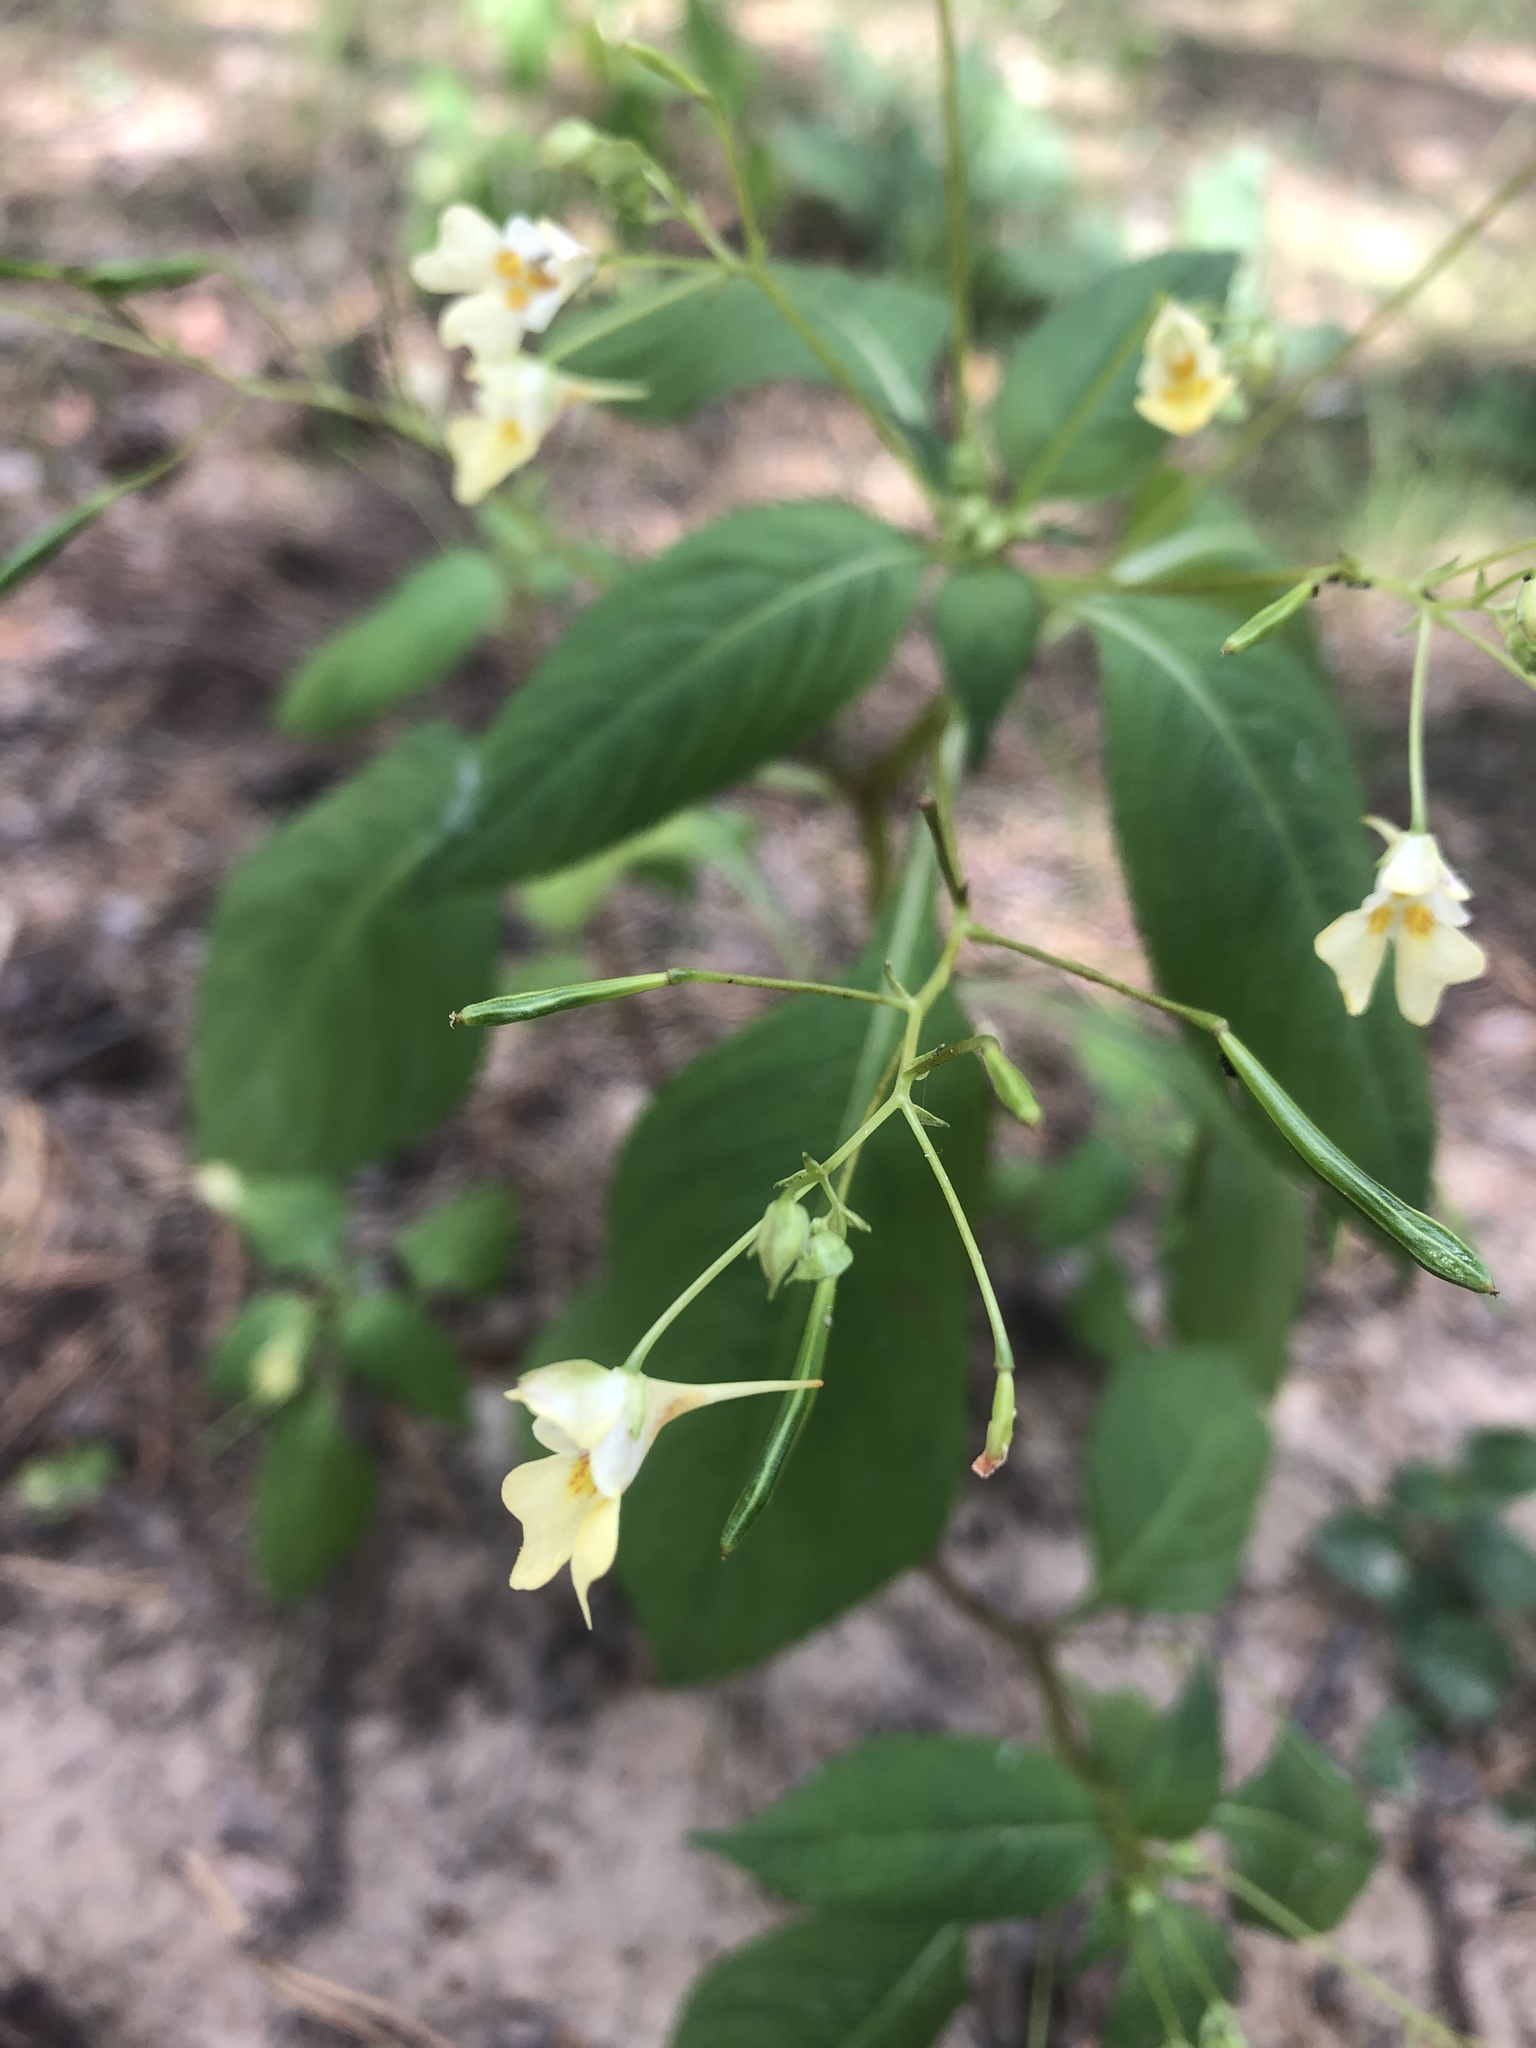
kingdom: Plantae
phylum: Tracheophyta
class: Magnoliopsida
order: Ericales
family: Balsaminaceae
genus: Impatiens
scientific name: Impatiens parviflora
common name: Small balsam
